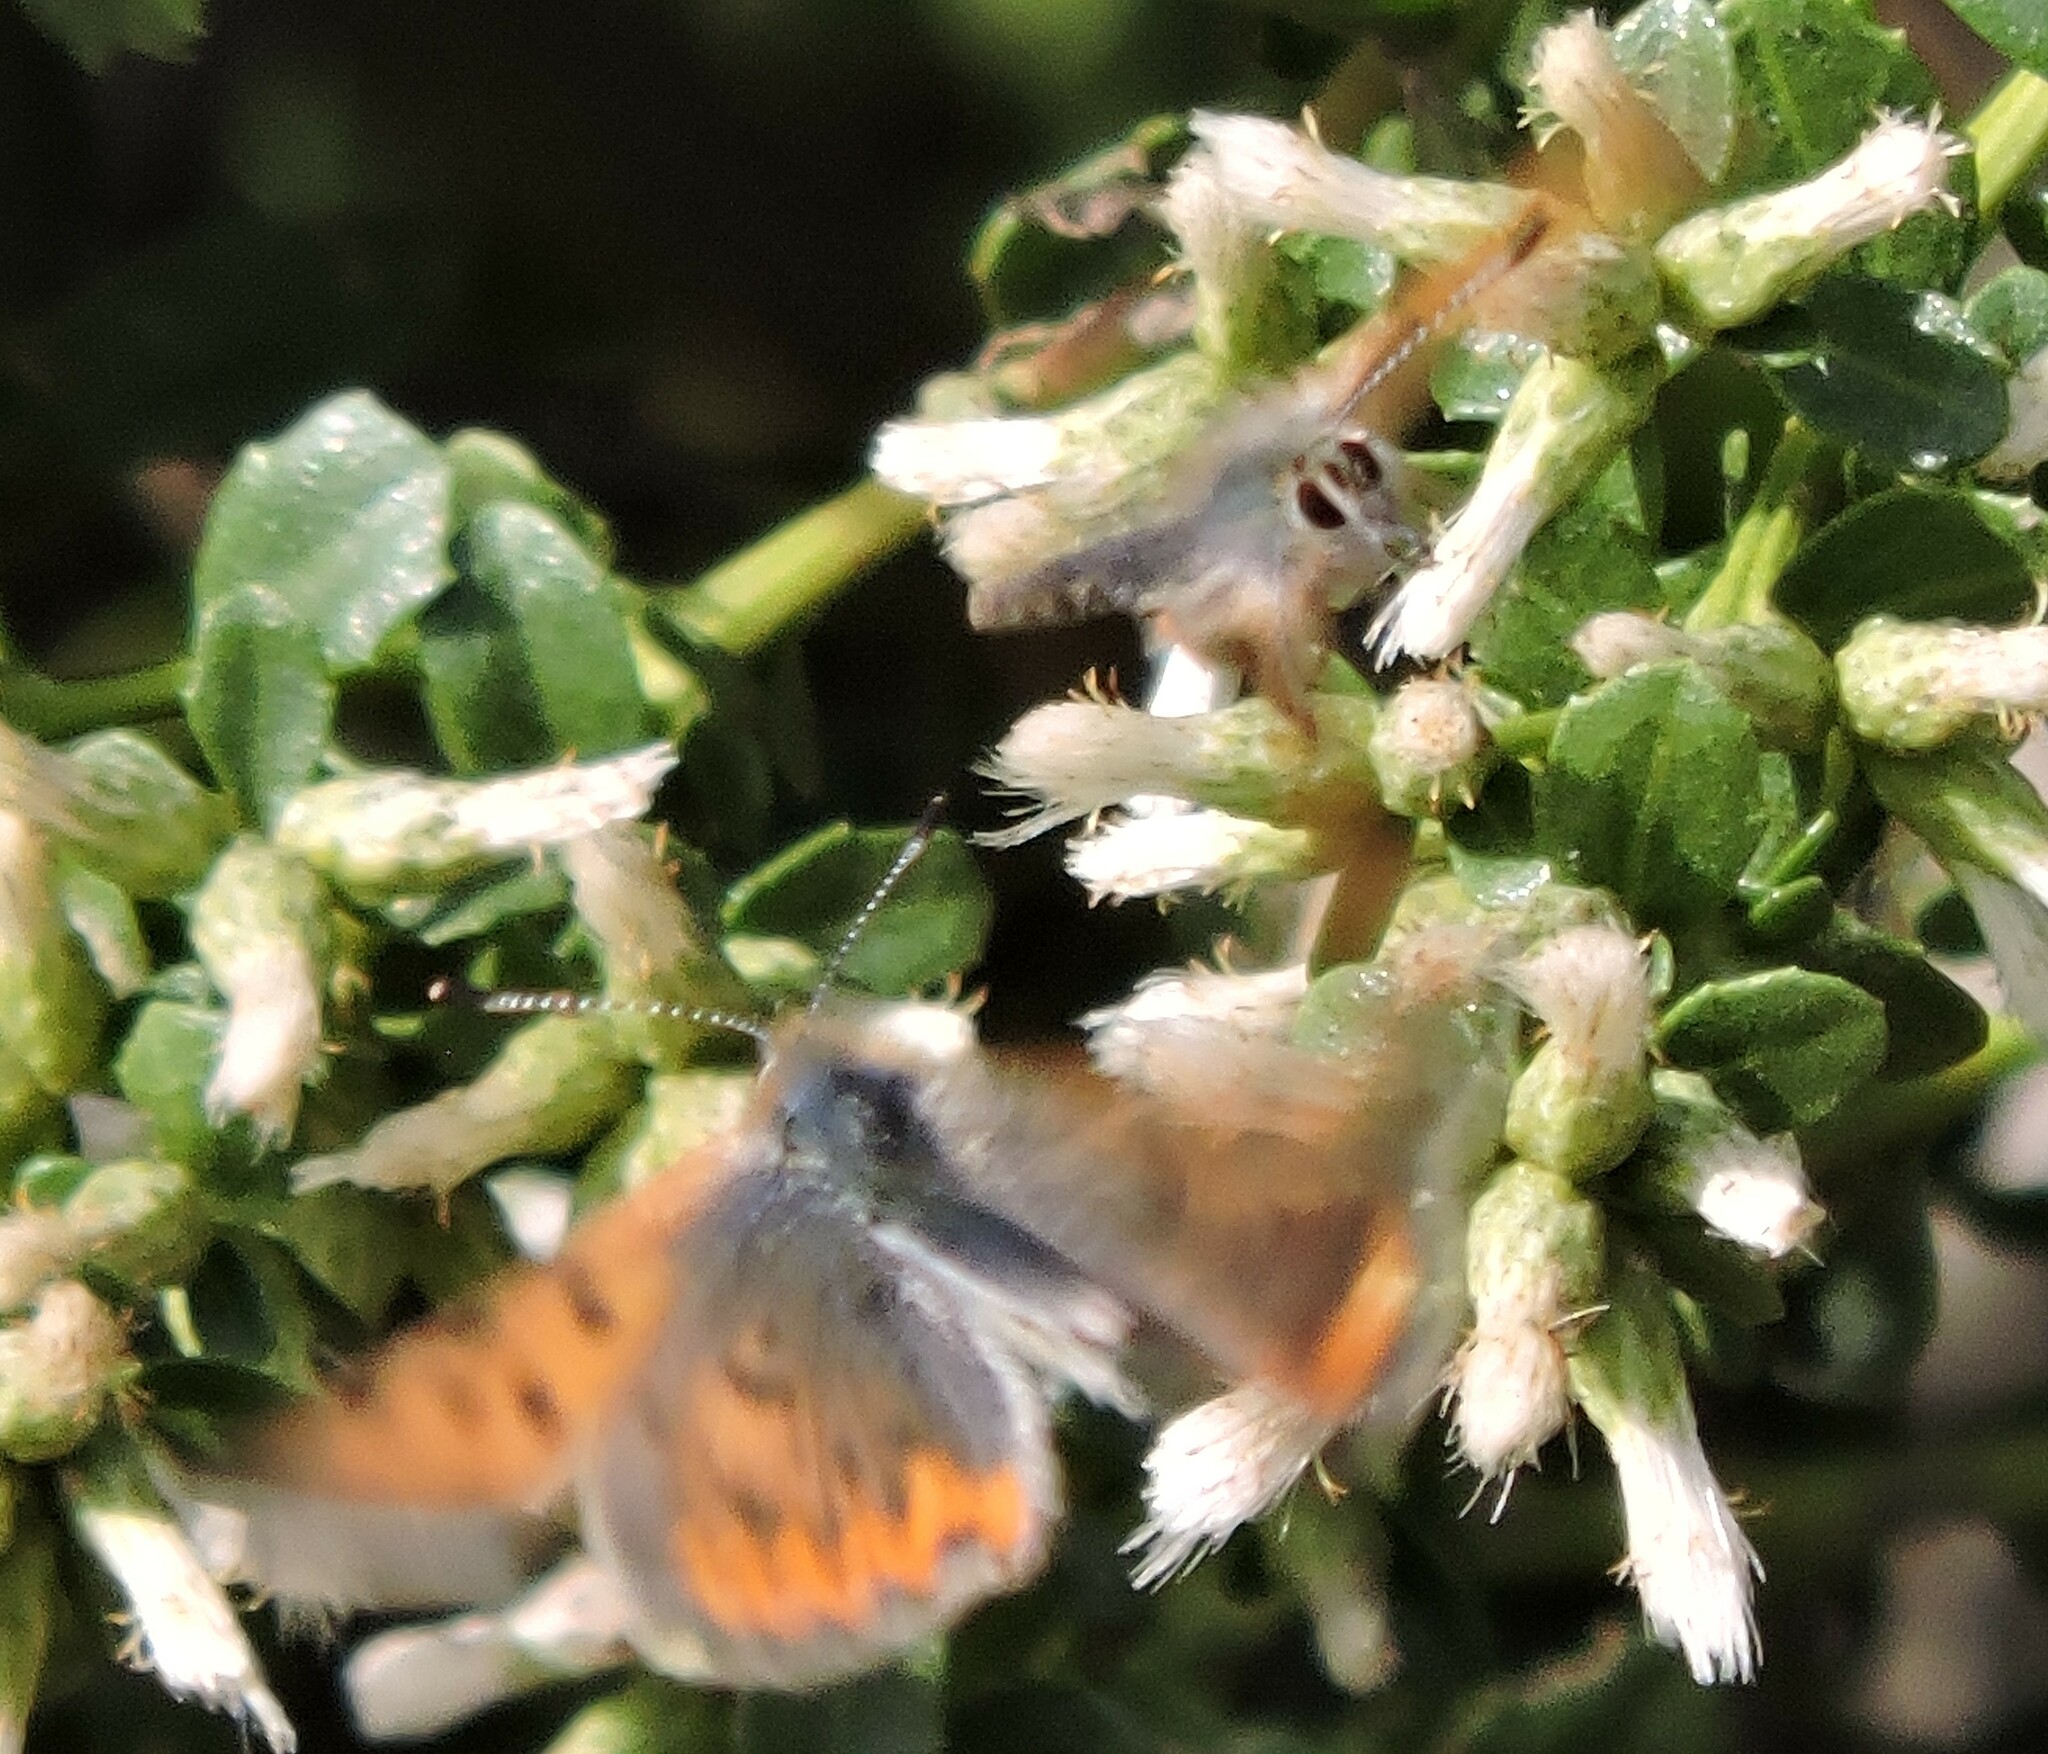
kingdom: Animalia
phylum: Arthropoda
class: Insecta
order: Lepidoptera
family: Lycaenidae
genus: Tharsalea
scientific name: Tharsalea helloides
